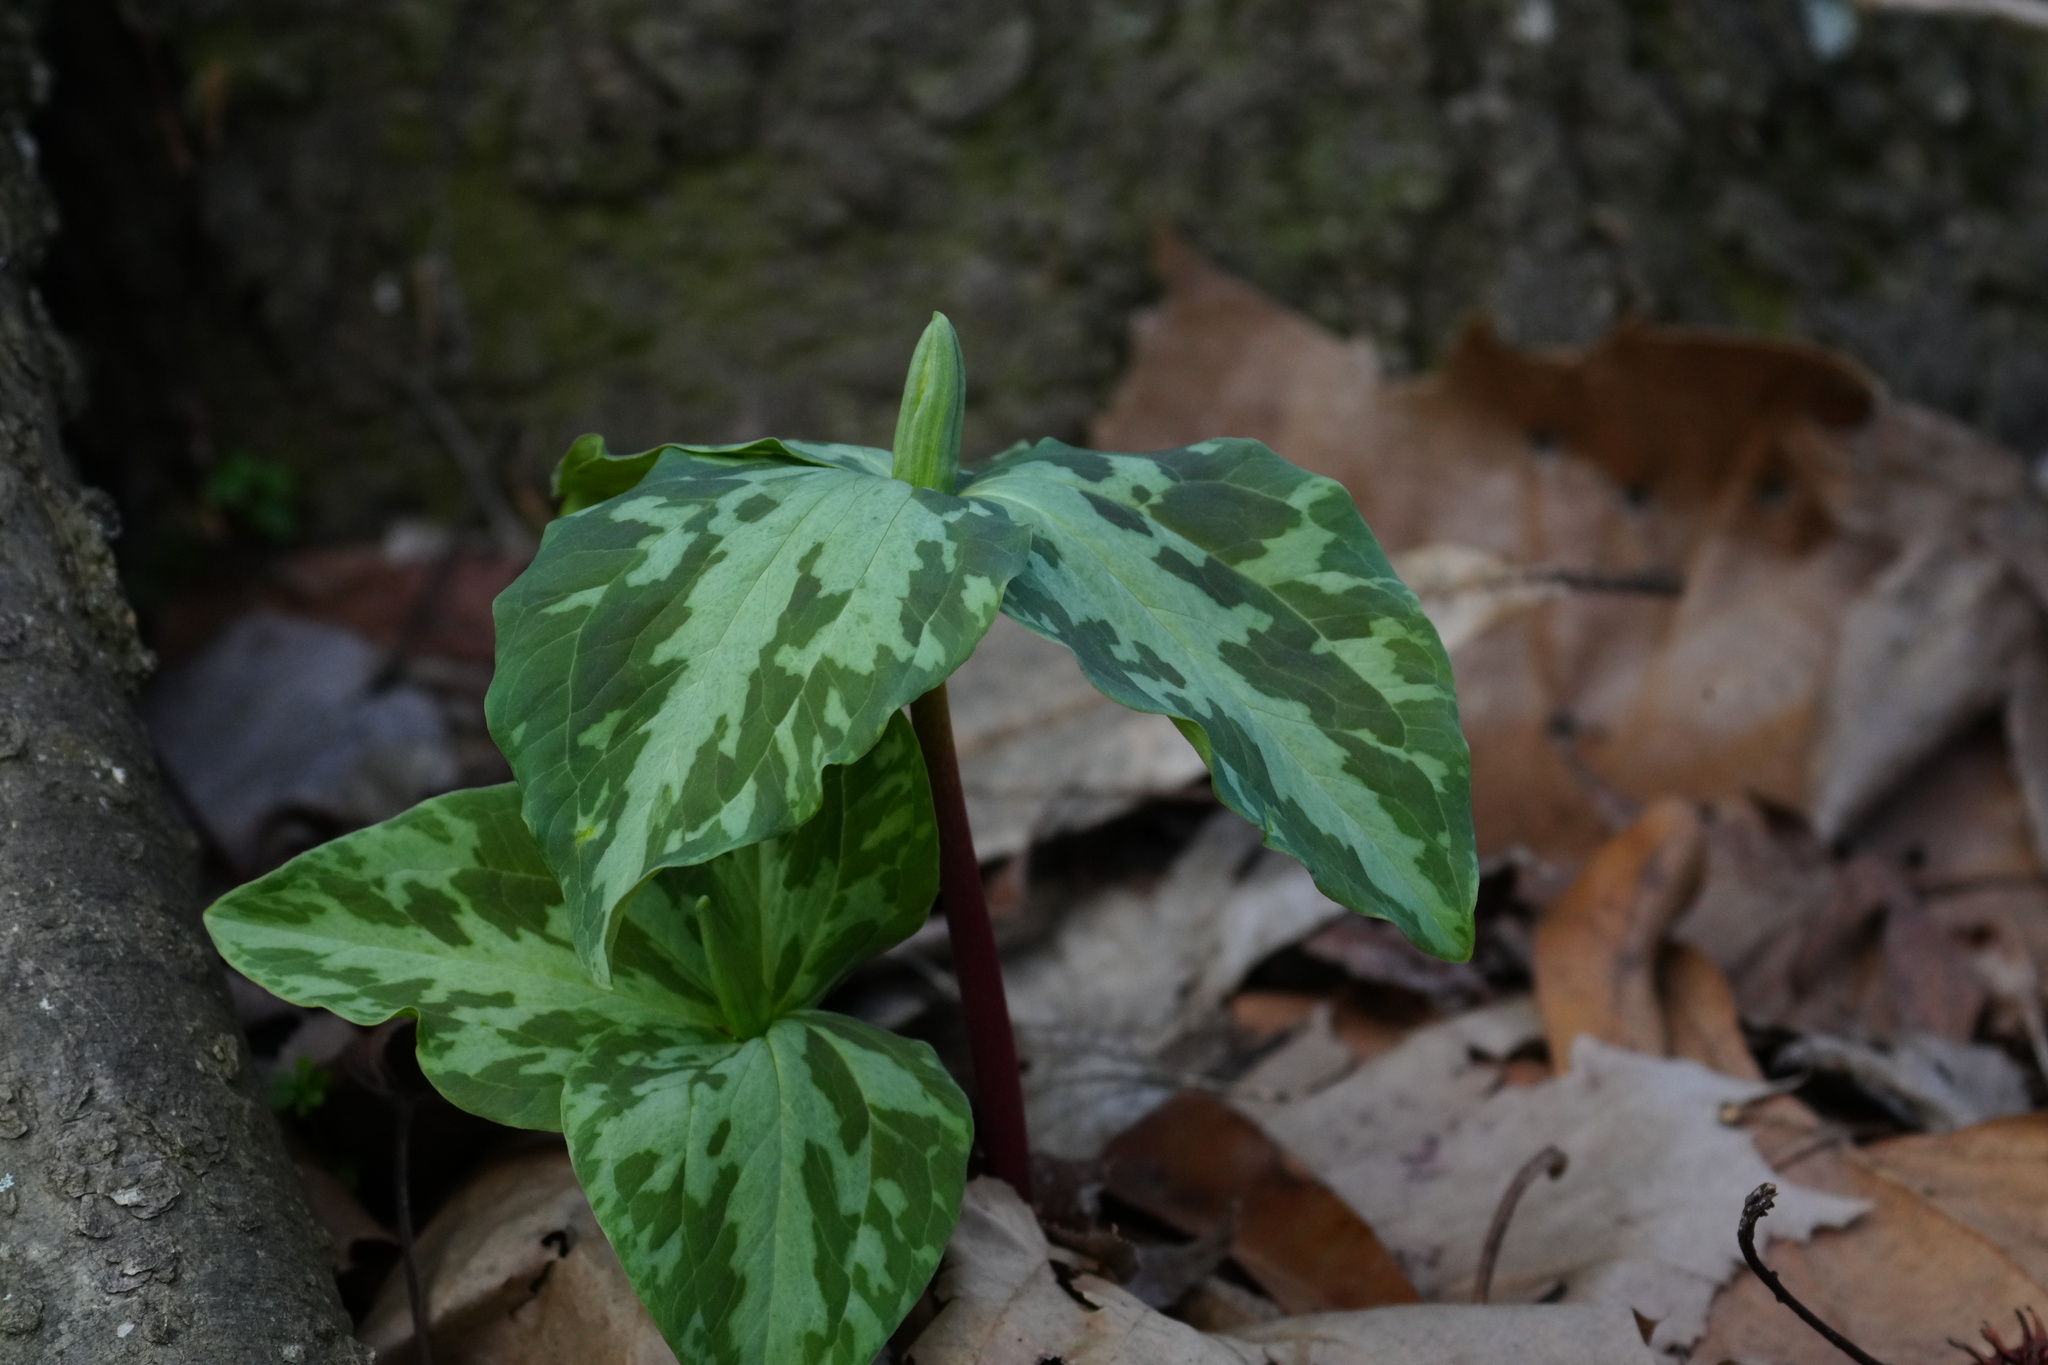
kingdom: Plantae
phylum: Tracheophyta
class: Liliopsida
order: Liliales
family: Melanthiaceae
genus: Trillium
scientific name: Trillium foetidissimum
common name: Mississippi river trillium
